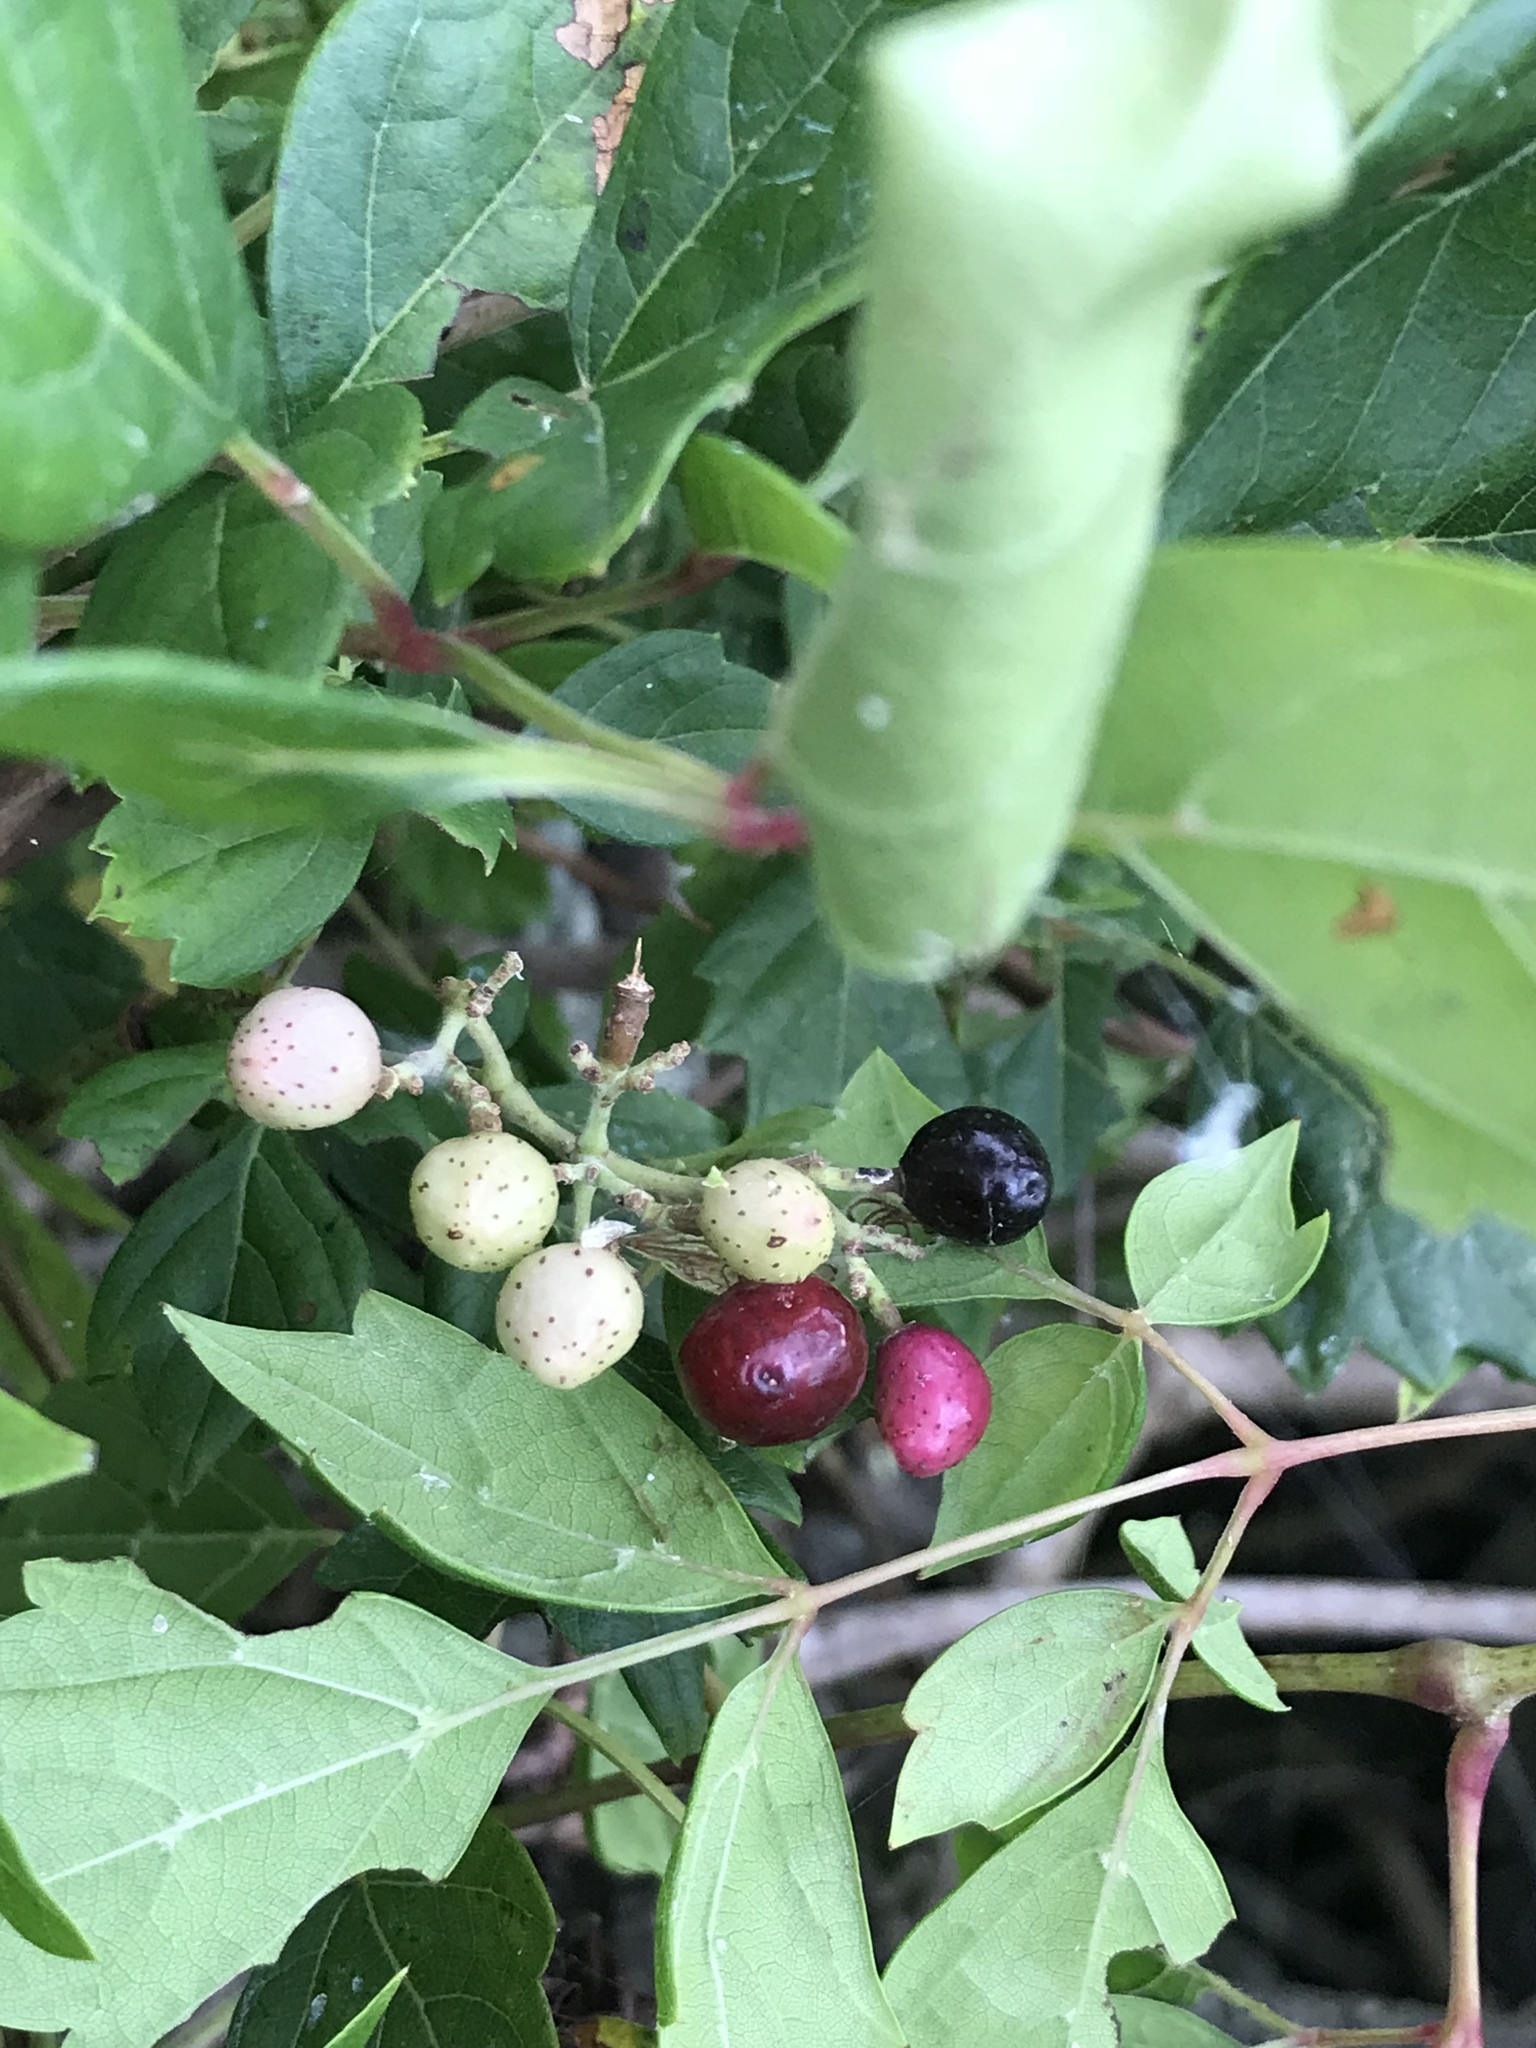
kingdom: Plantae
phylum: Tracheophyta
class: Magnoliopsida
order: Vitales
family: Vitaceae
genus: Nekemias
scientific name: Nekemias arborea
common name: Peppervine
